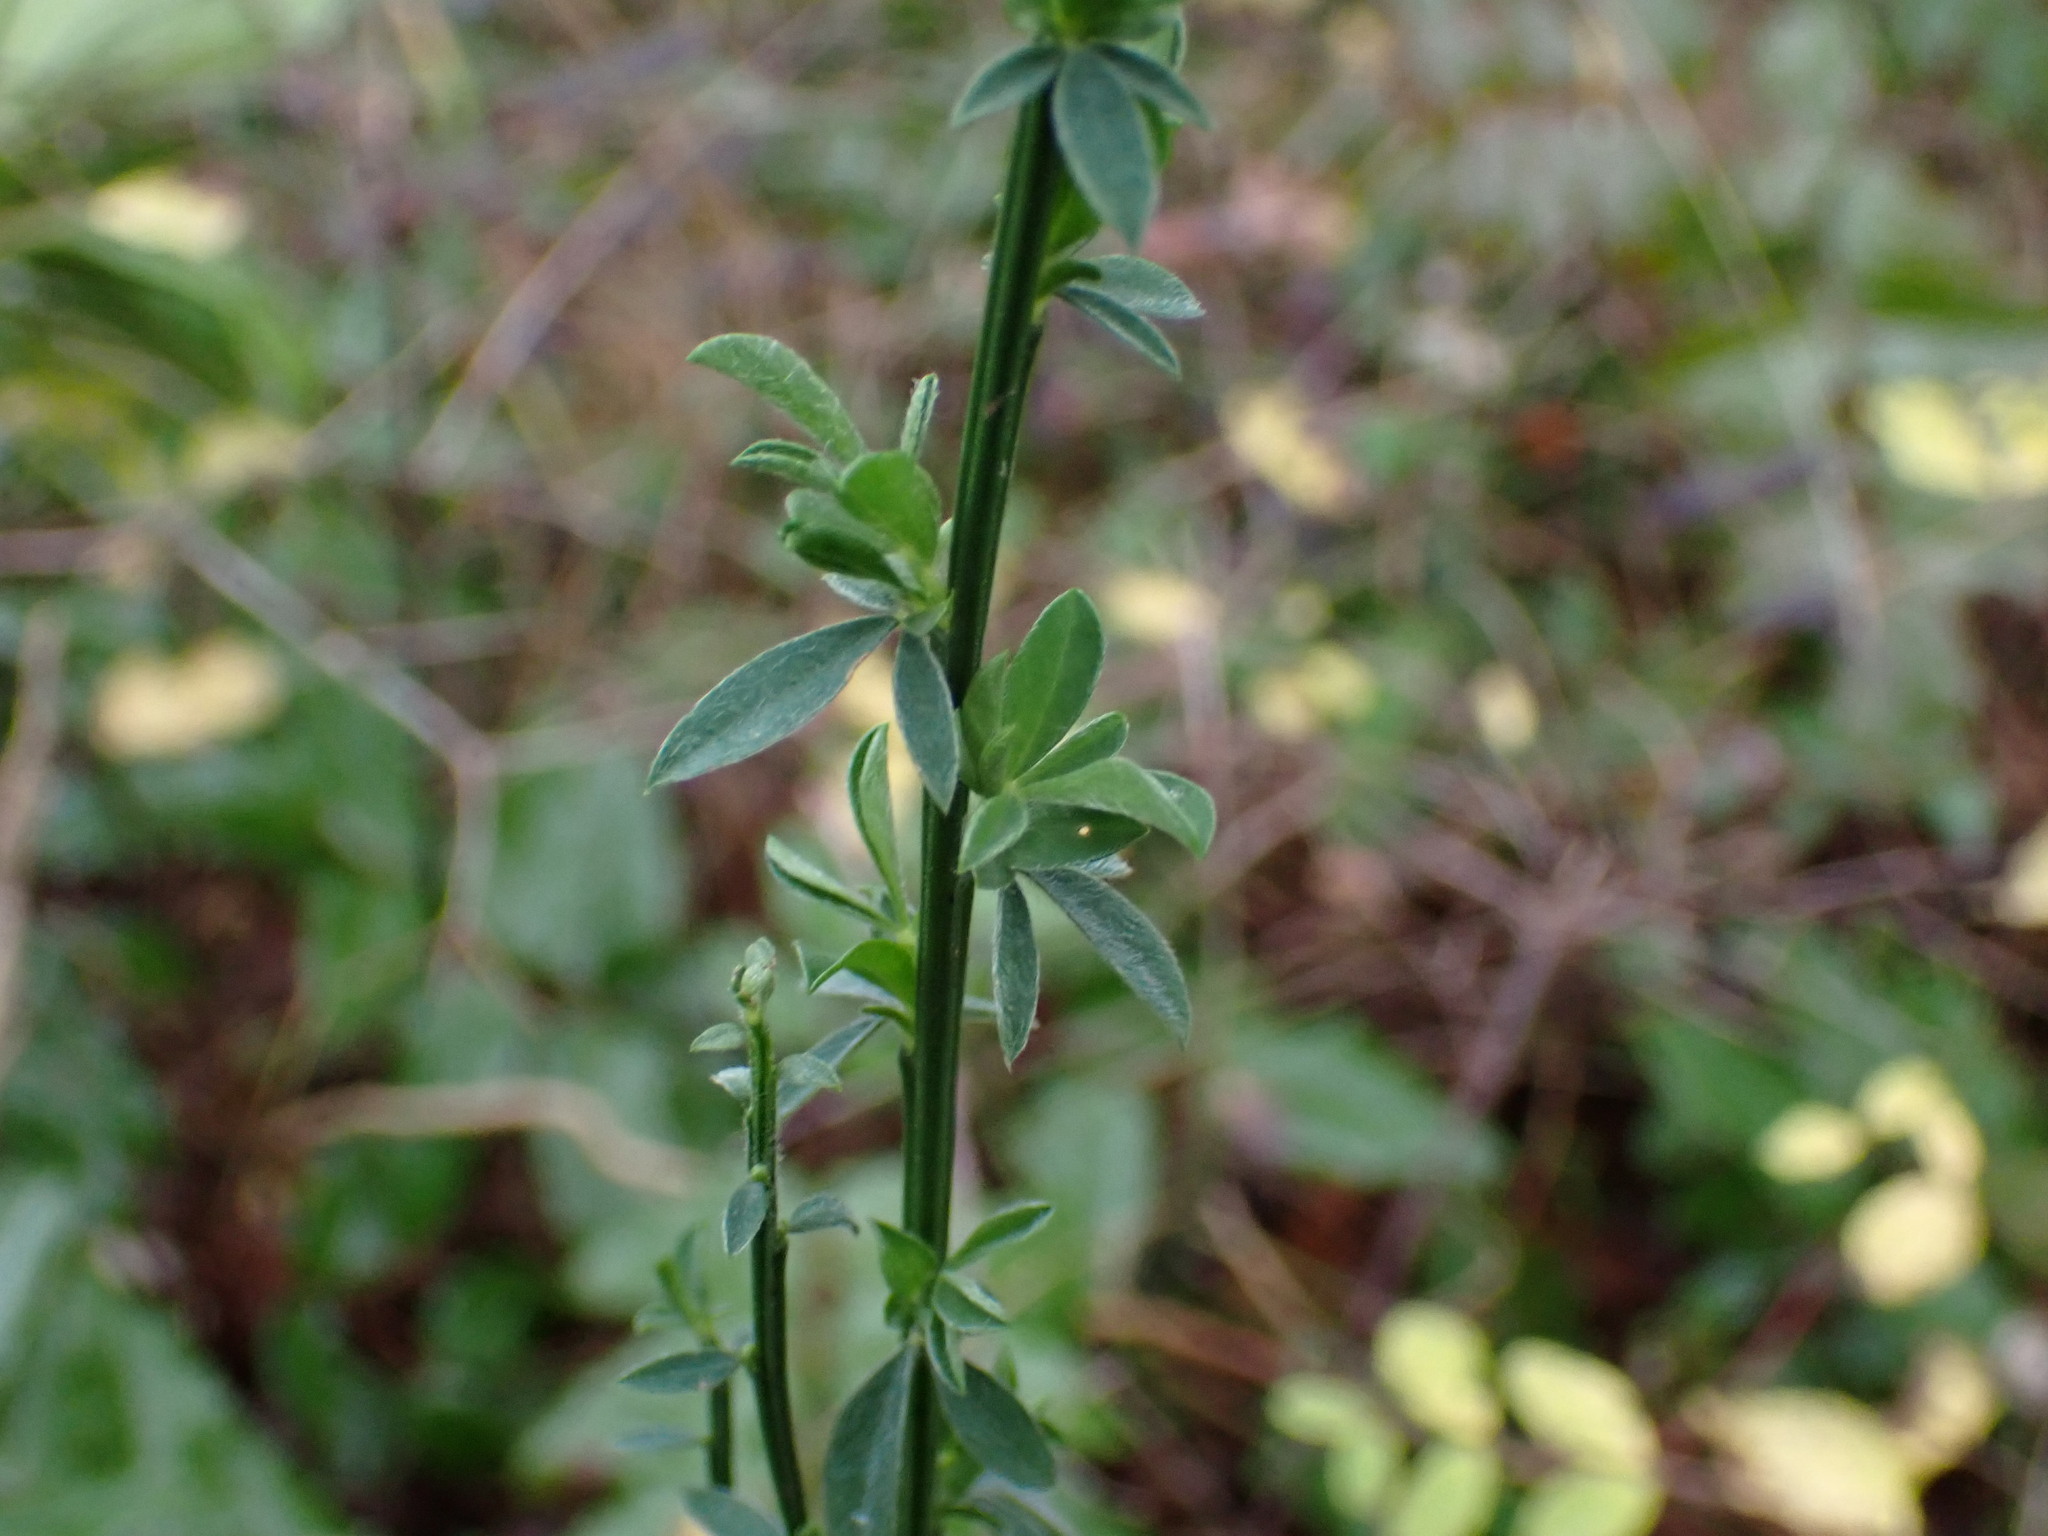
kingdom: Plantae
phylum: Tracheophyta
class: Magnoliopsida
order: Fabales
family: Fabaceae
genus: Cytisus
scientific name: Cytisus scoparius
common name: Scotch broom
